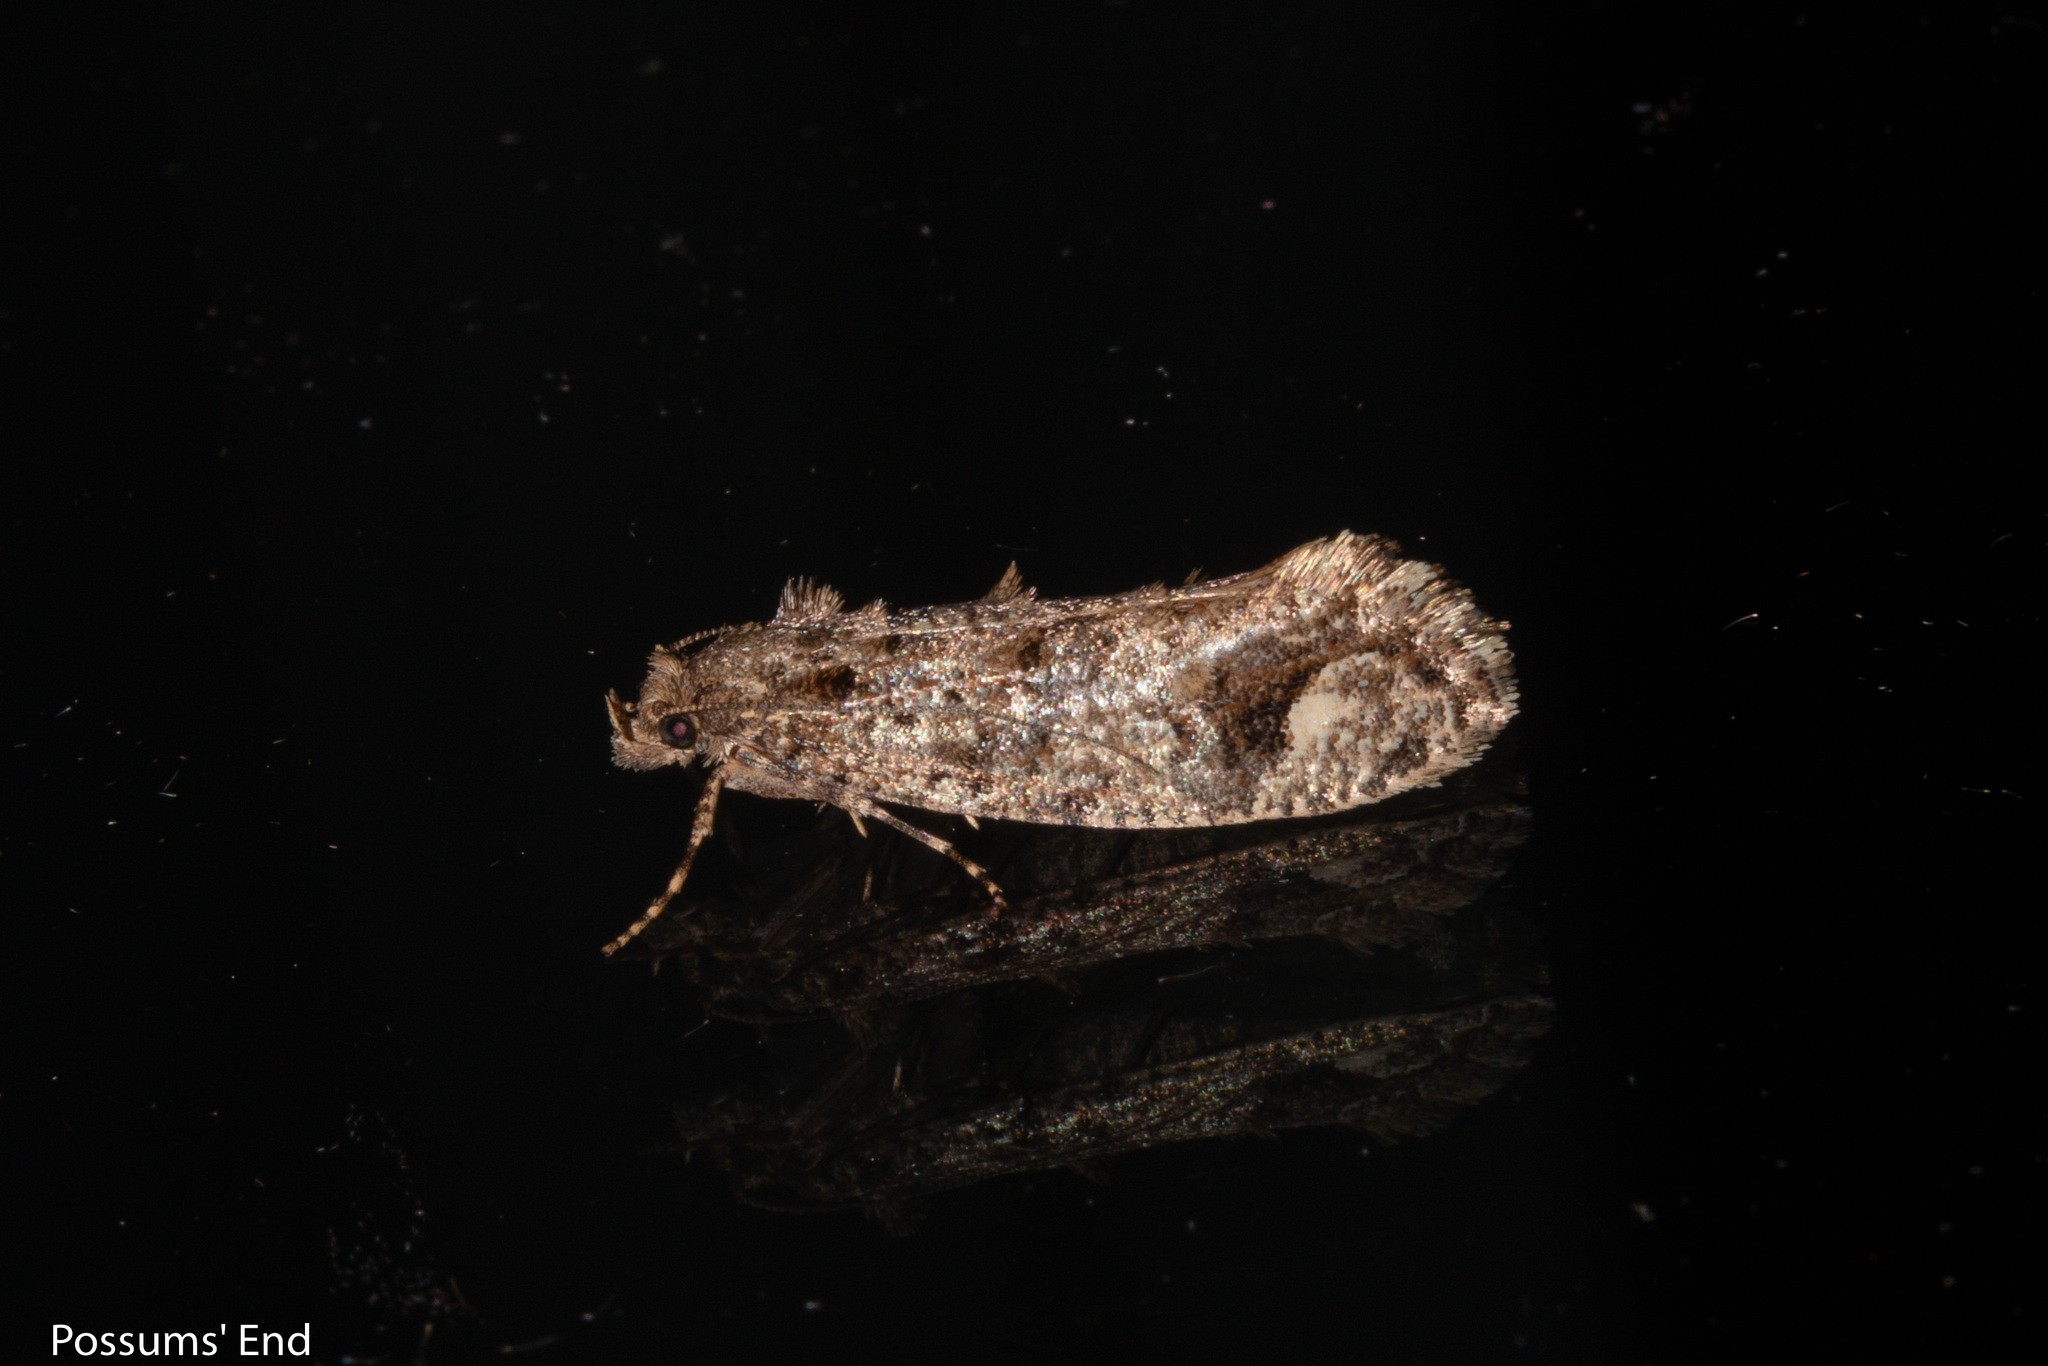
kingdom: Animalia
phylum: Arthropoda
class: Insecta
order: Lepidoptera
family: Tineidae
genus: Lysiphragma
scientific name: Lysiphragma epixyla
